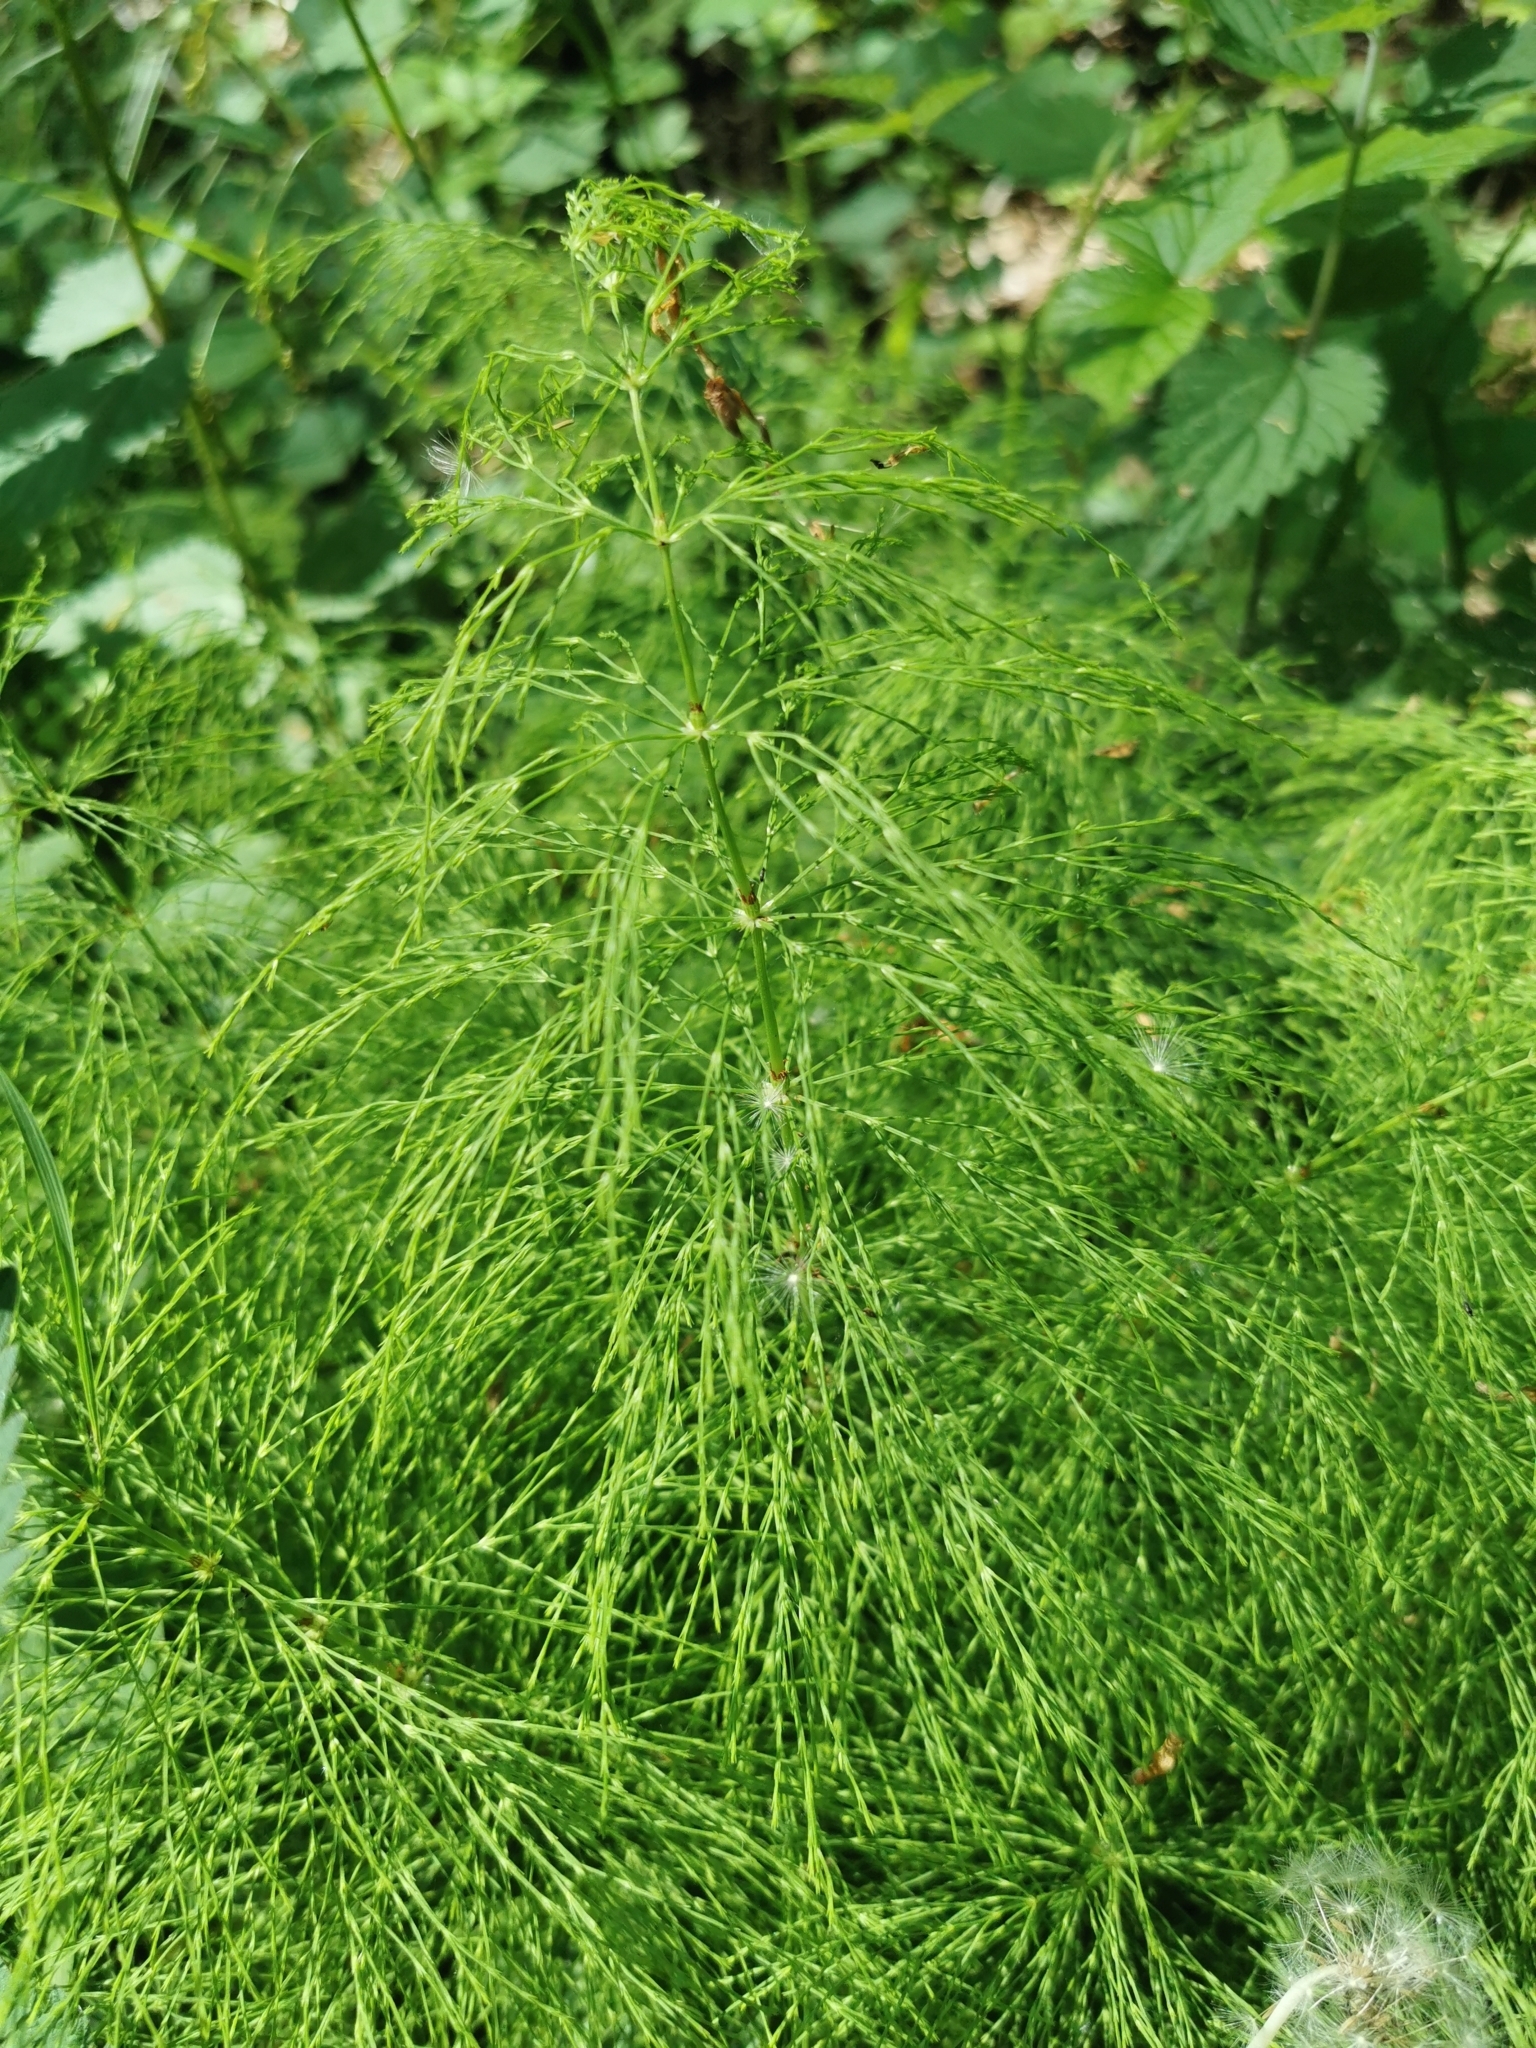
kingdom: Plantae
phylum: Tracheophyta
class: Polypodiopsida
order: Equisetales
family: Equisetaceae
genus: Equisetum
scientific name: Equisetum sylvaticum
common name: Wood horsetail
